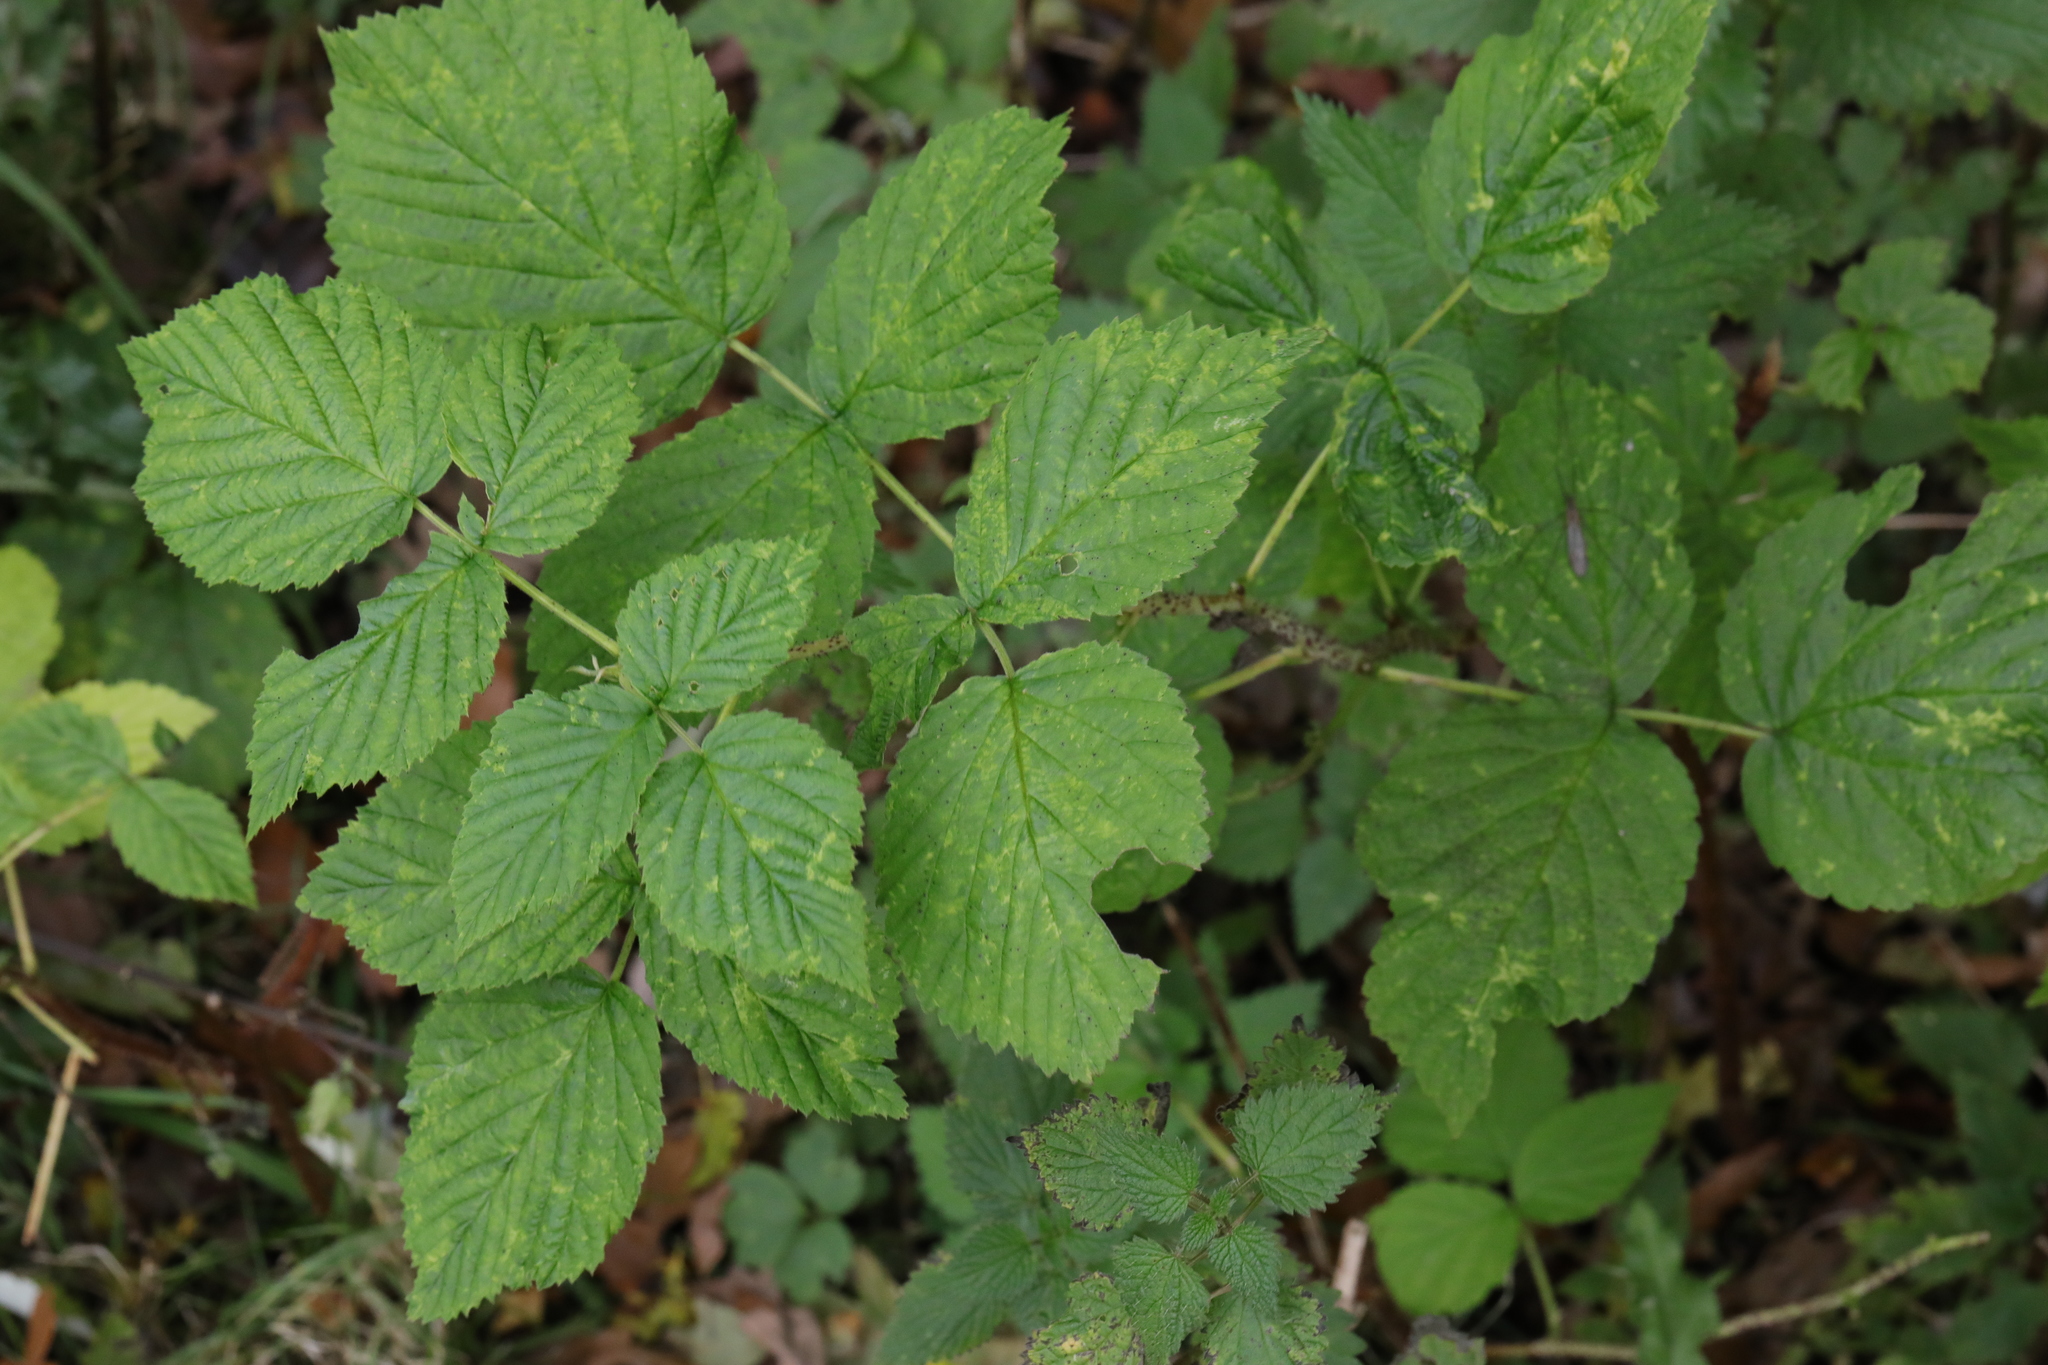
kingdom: Plantae
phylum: Tracheophyta
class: Magnoliopsida
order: Rosales
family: Rosaceae
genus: Rubus
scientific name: Rubus idaeus
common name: Raspberry
